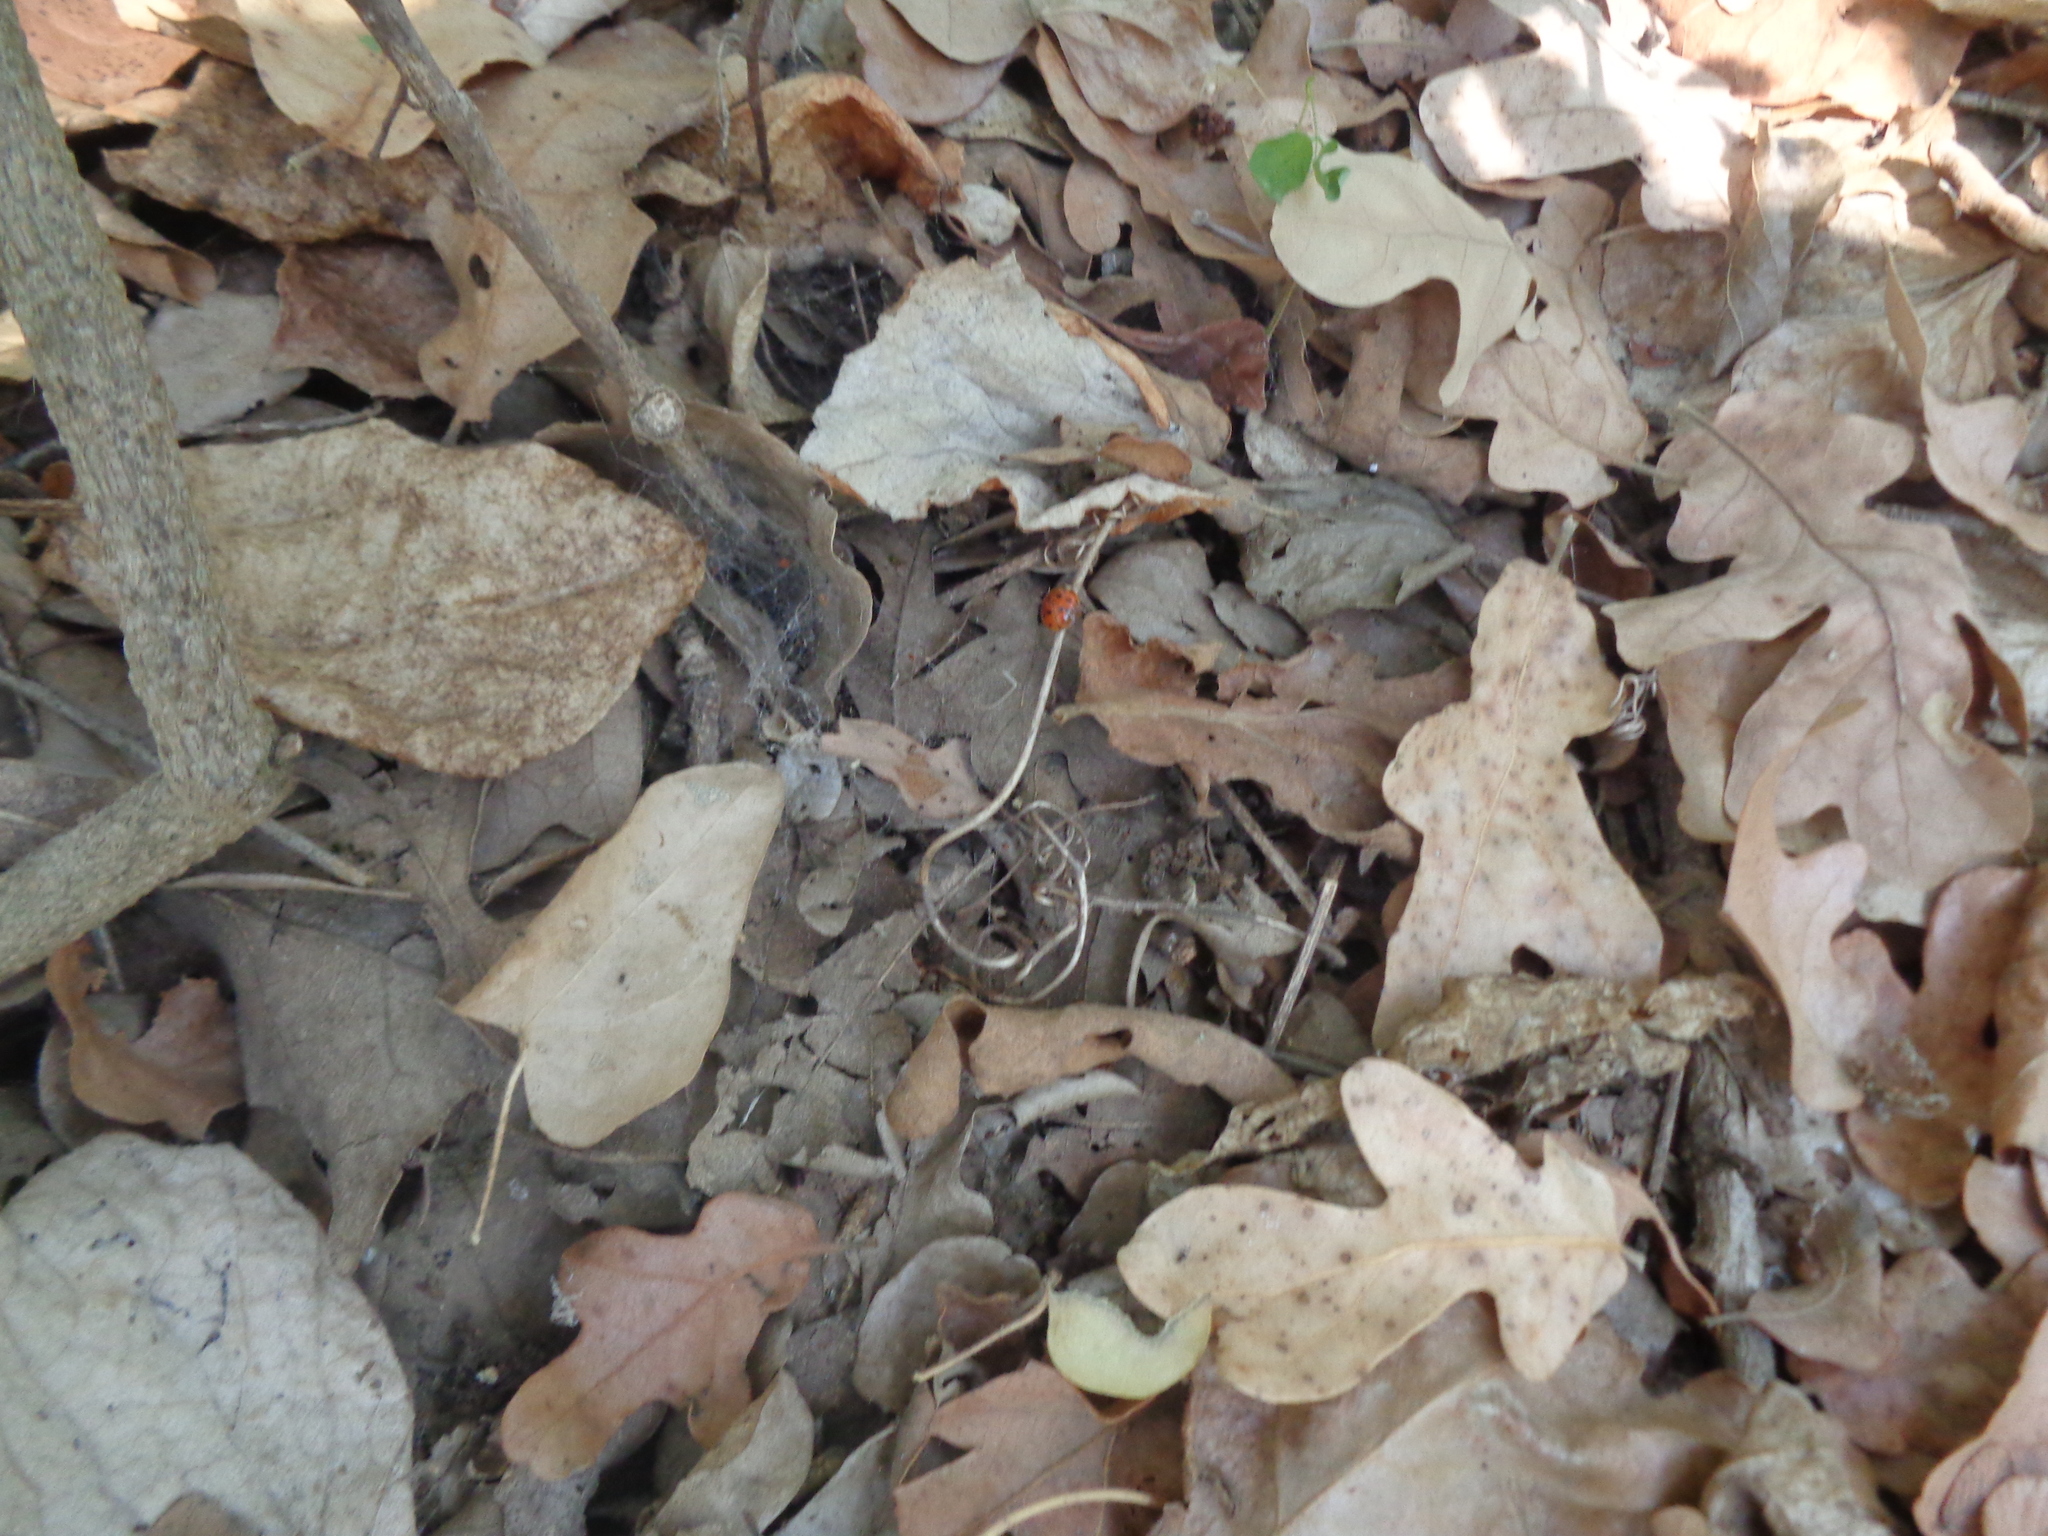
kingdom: Animalia
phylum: Arthropoda
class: Insecta
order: Coleoptera
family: Coccinellidae
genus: Harmonia
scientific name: Harmonia axyridis
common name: Harlequin ladybird
